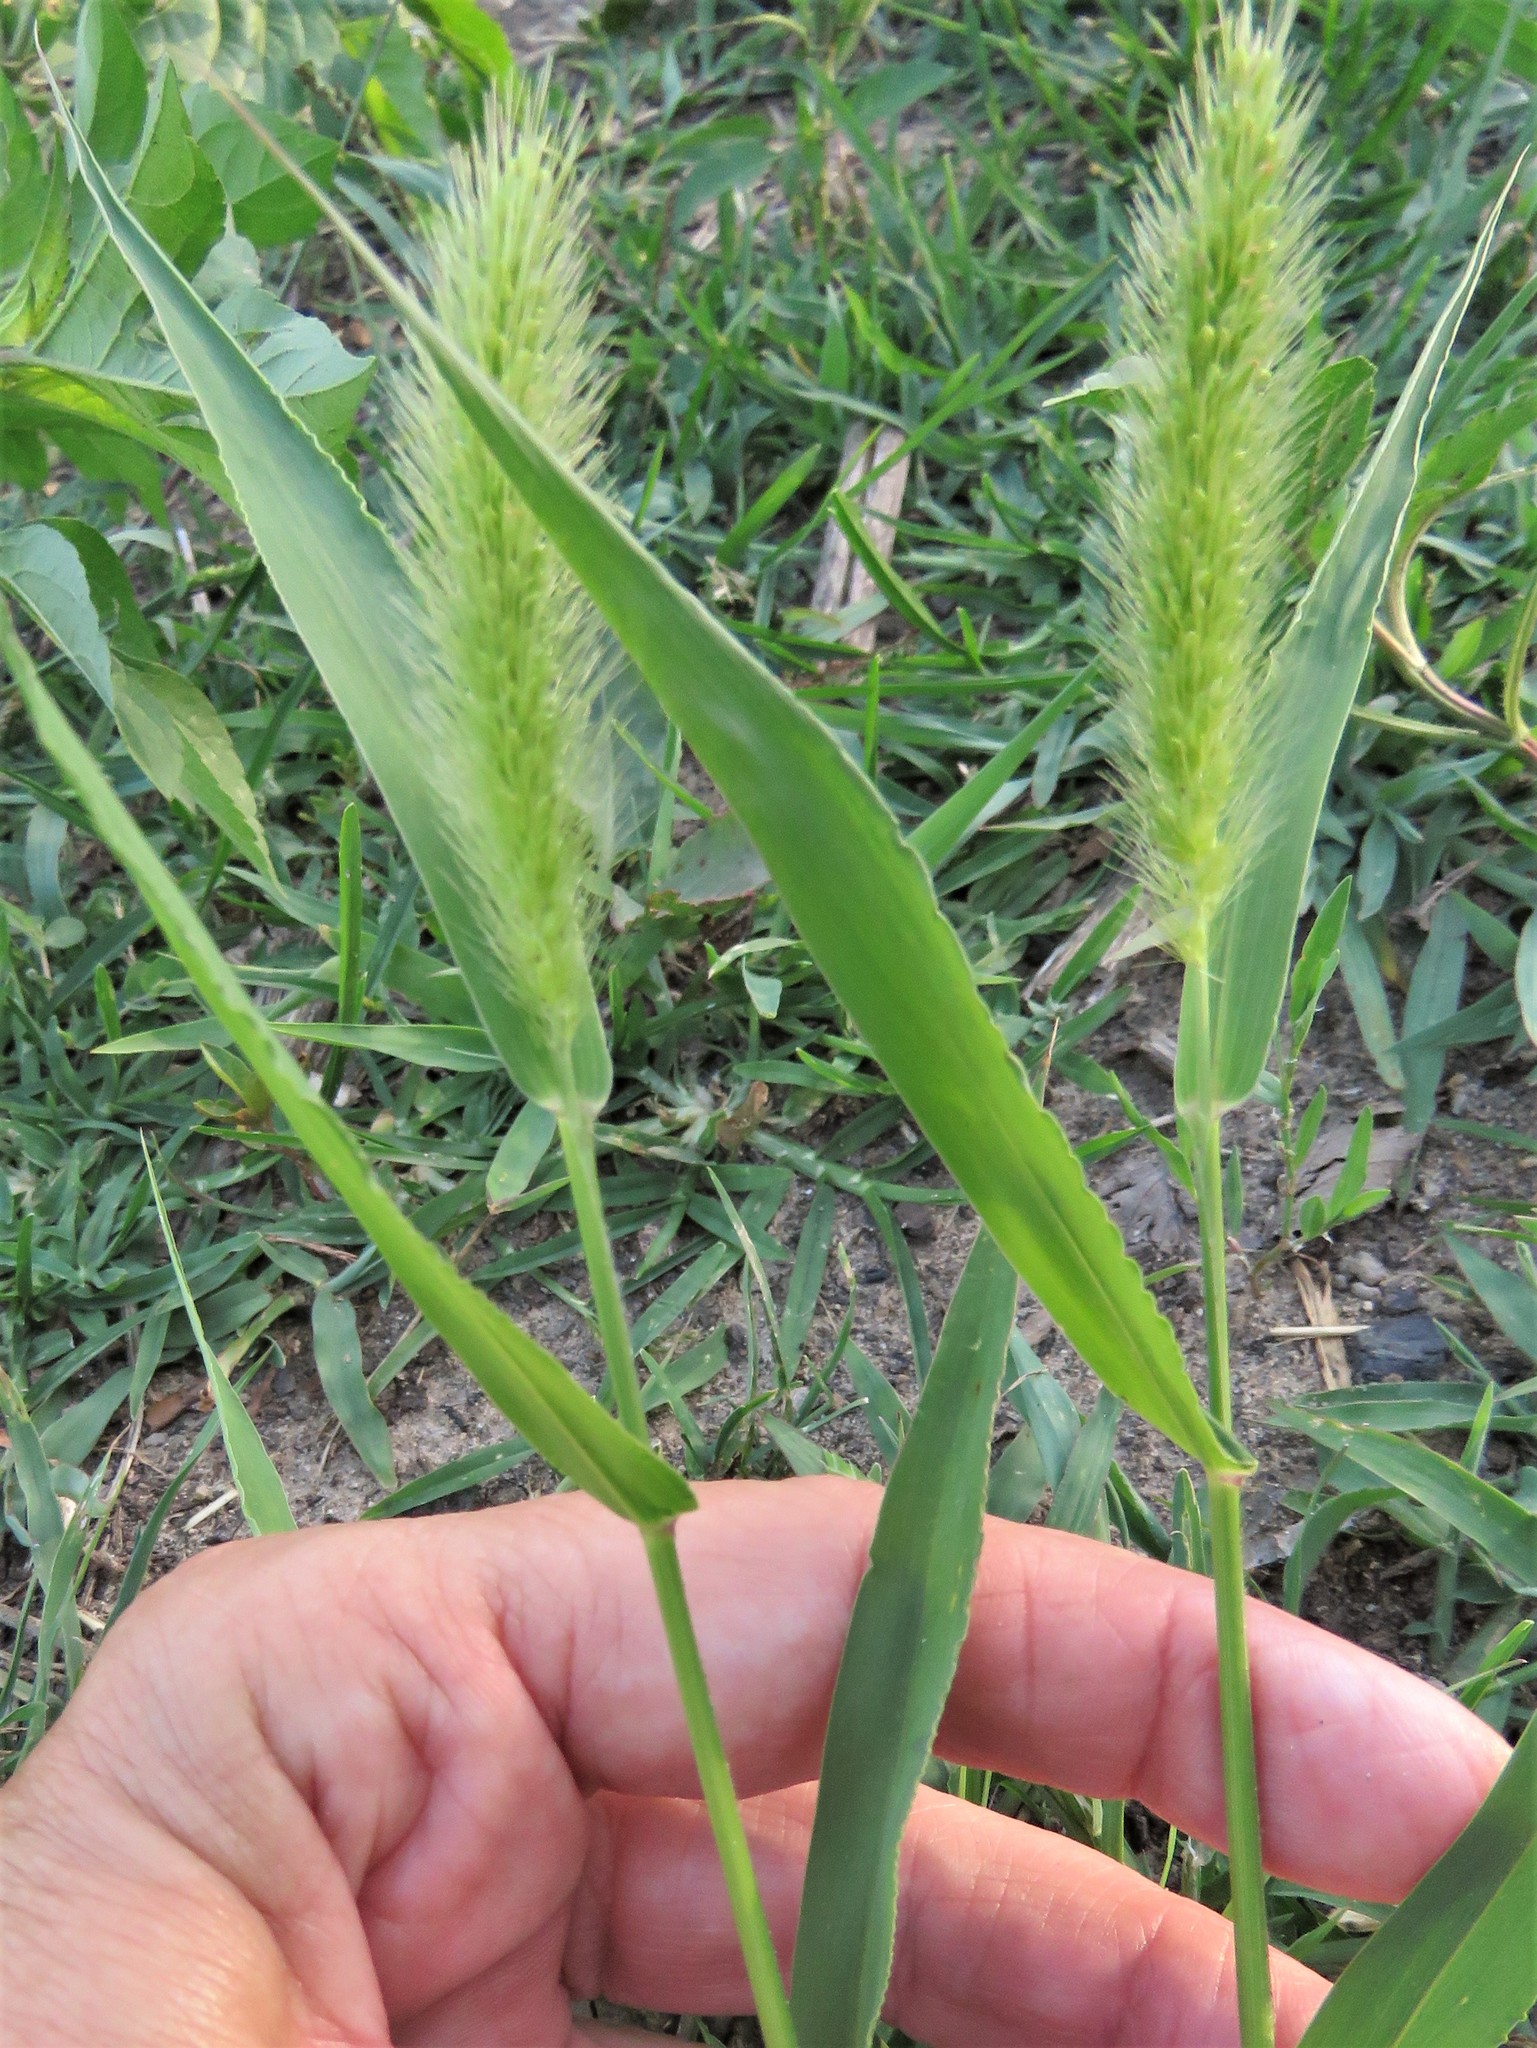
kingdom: Plantae
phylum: Tracheophyta
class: Liliopsida
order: Poales
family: Poaceae
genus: Setaria
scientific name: Setaria viridis
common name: Green bristlegrass
